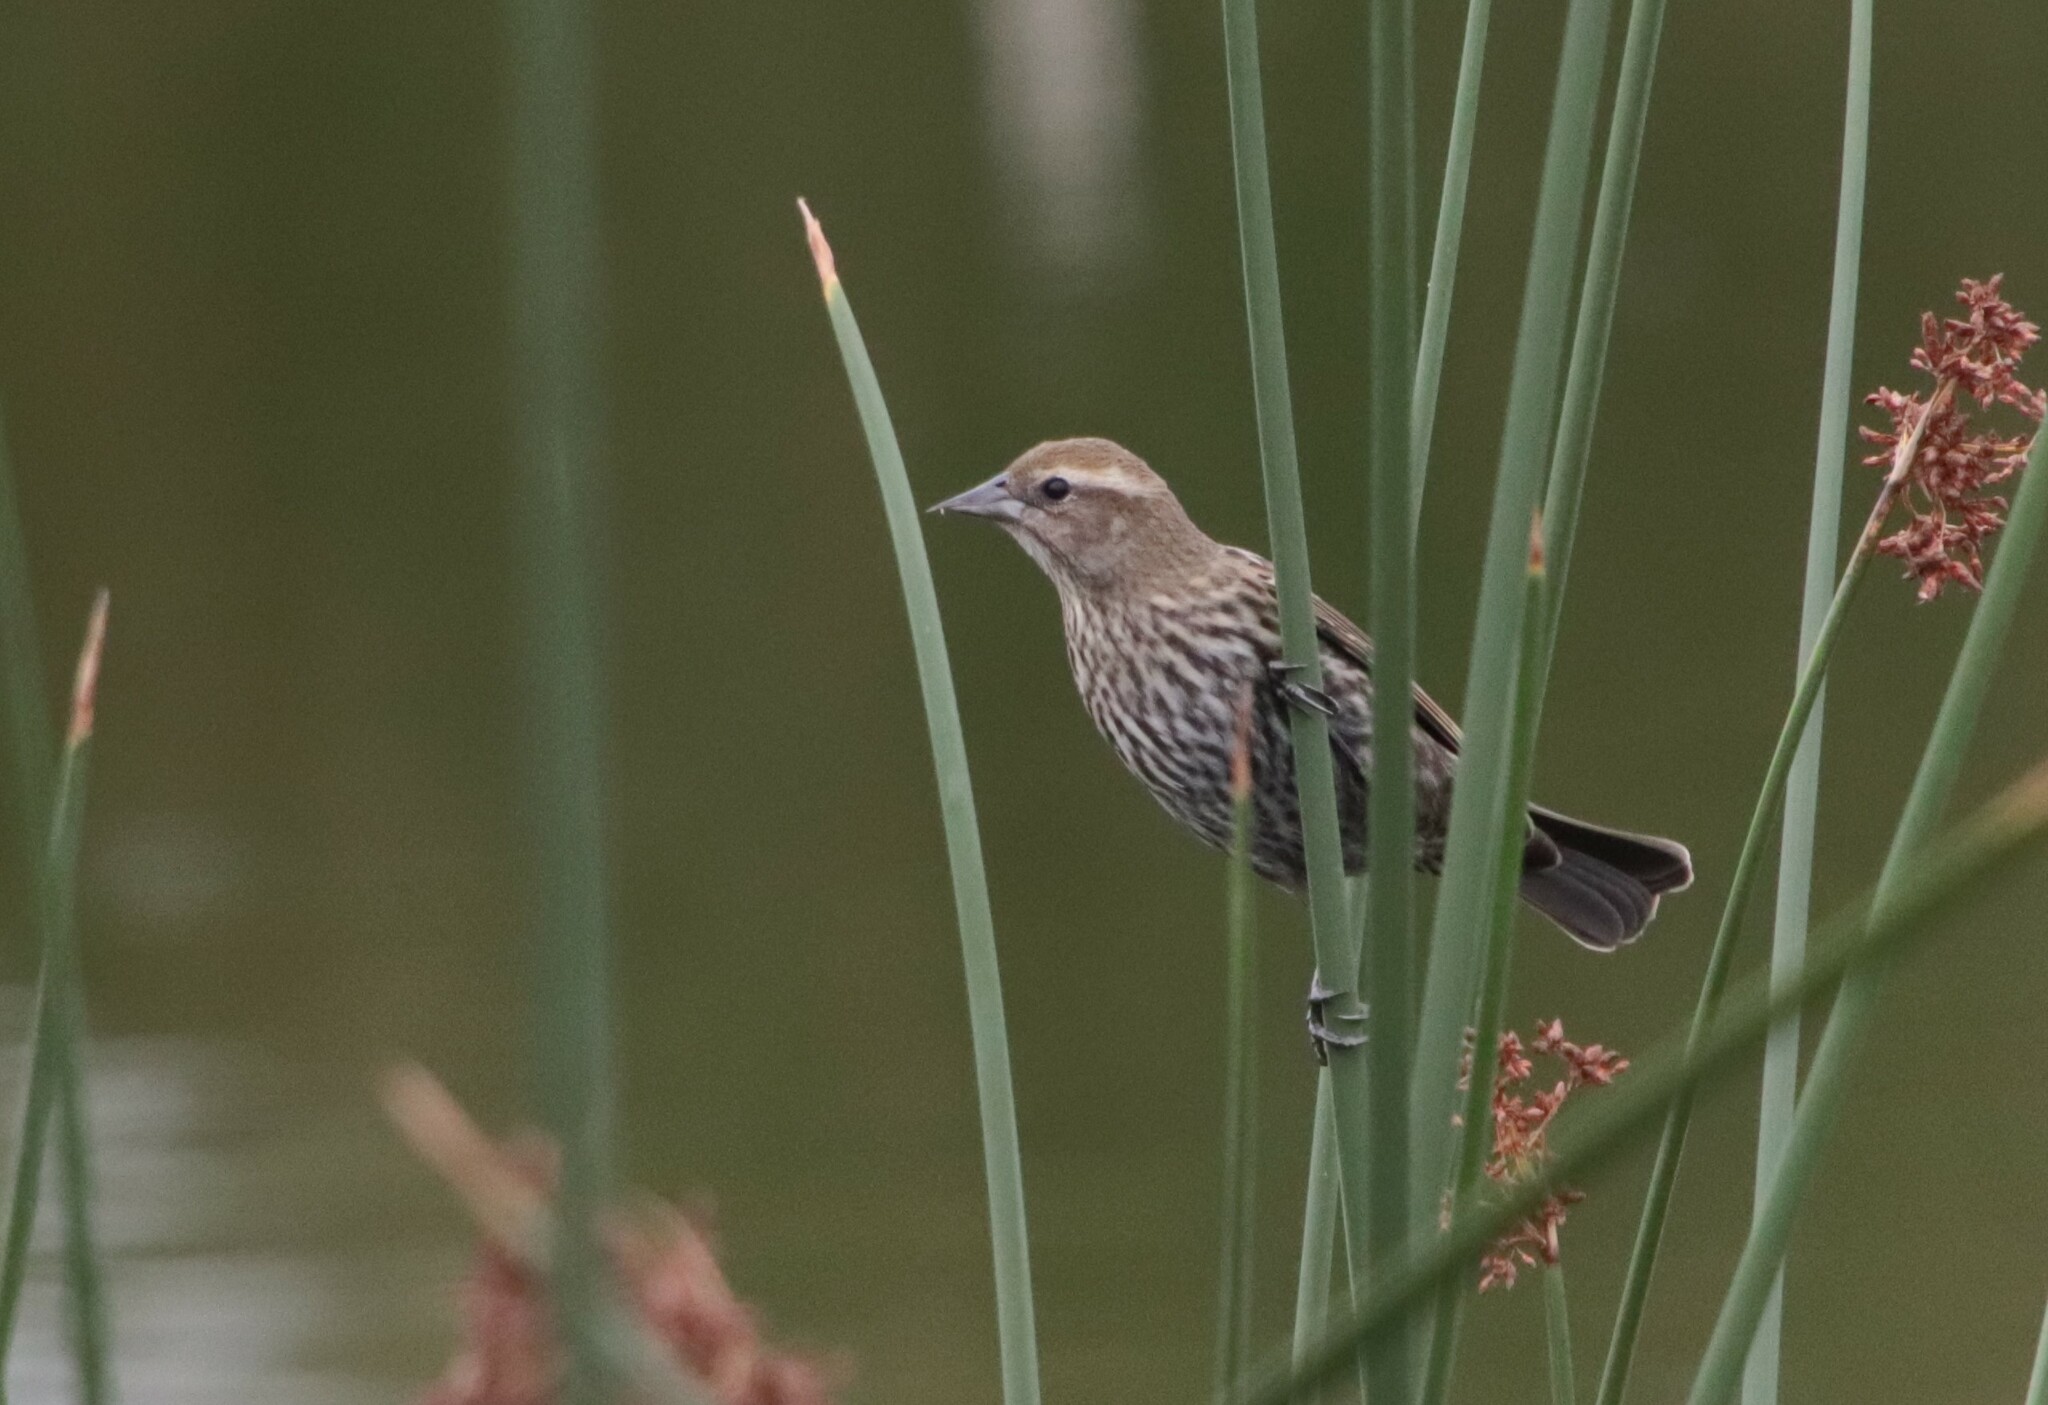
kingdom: Animalia
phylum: Chordata
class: Aves
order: Passeriformes
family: Icteridae
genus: Agelaius
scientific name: Agelaius phoeniceus
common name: Red-winged blackbird
